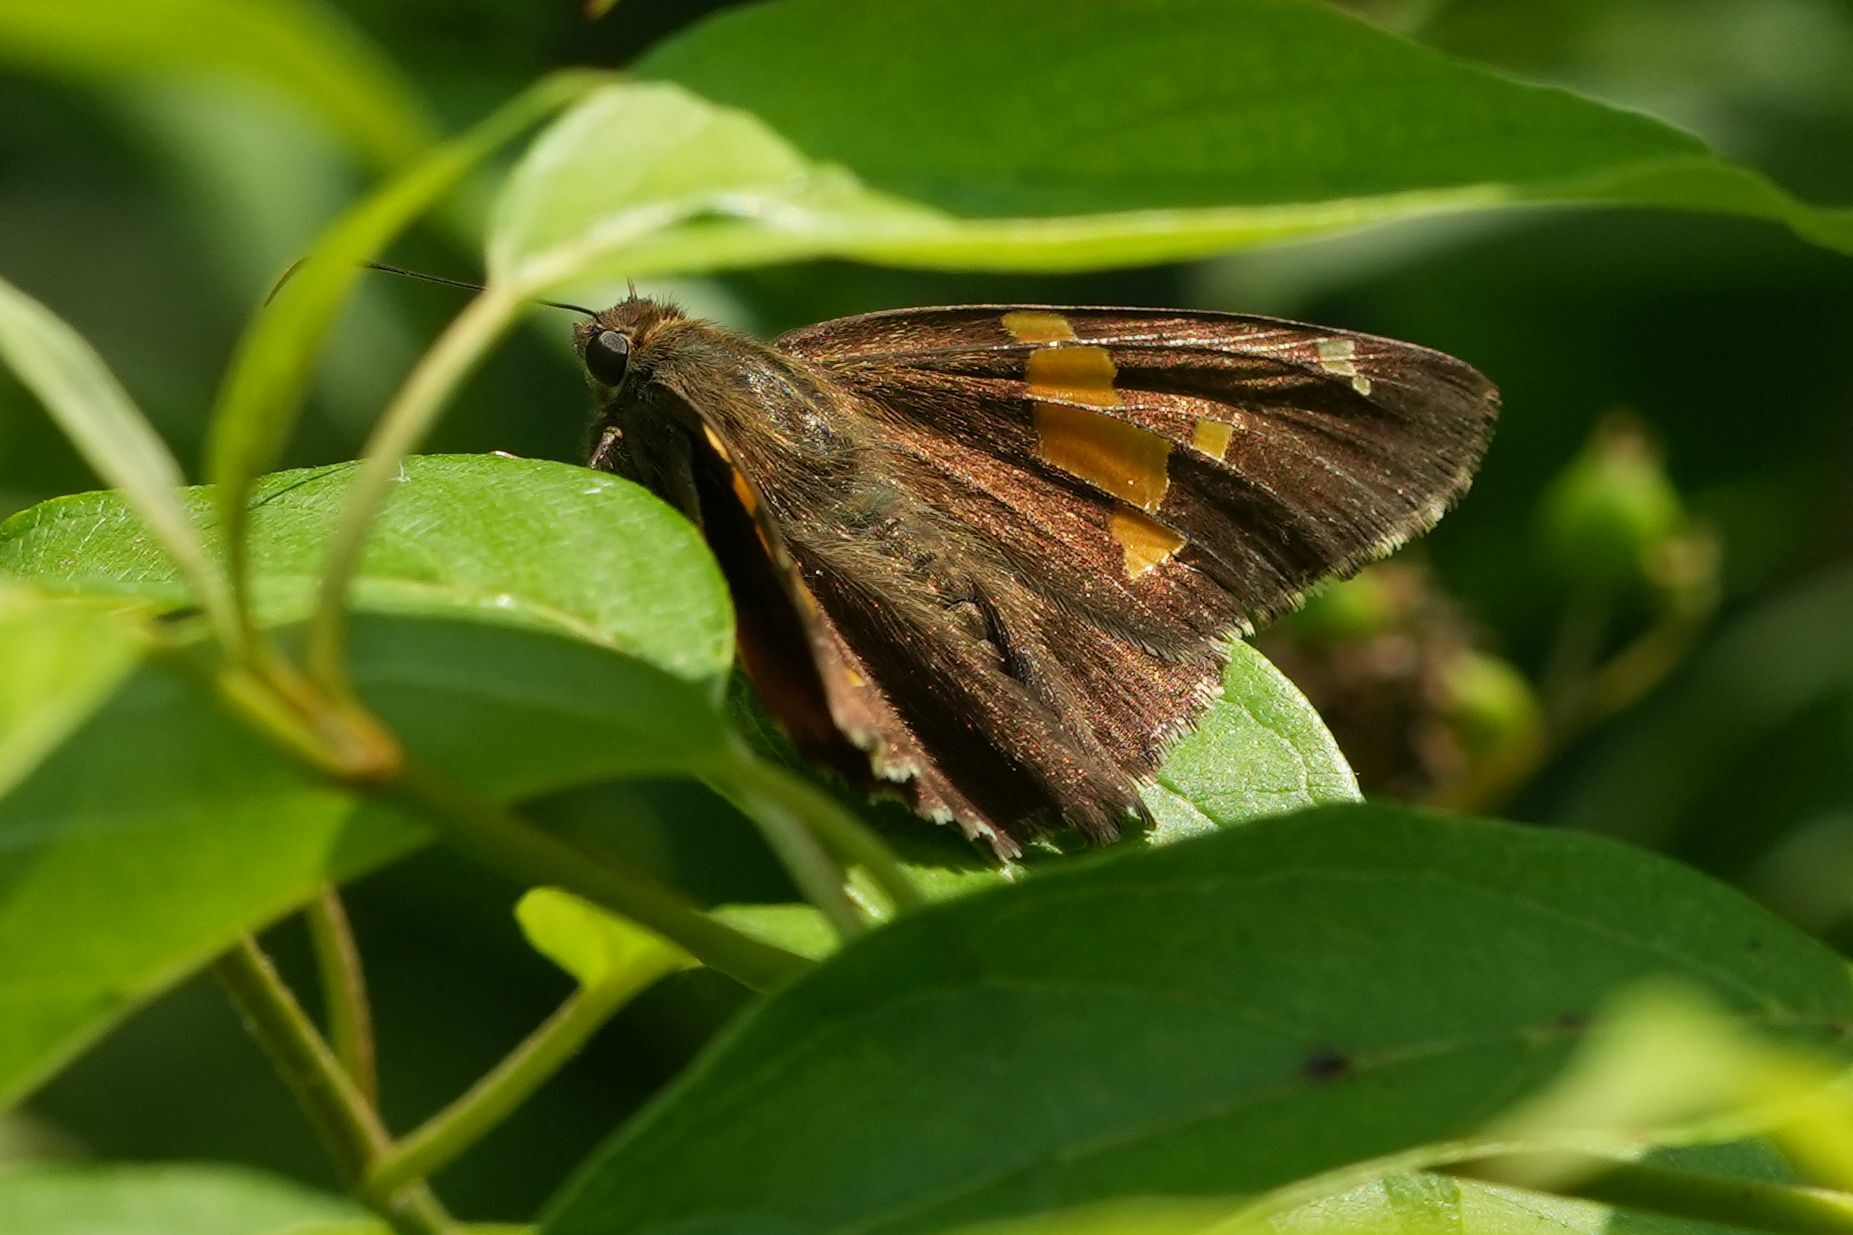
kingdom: Animalia
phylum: Arthropoda
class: Insecta
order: Lepidoptera
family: Hesperiidae
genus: Epargyreus
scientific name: Epargyreus clarus
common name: Silver-spotted skipper
